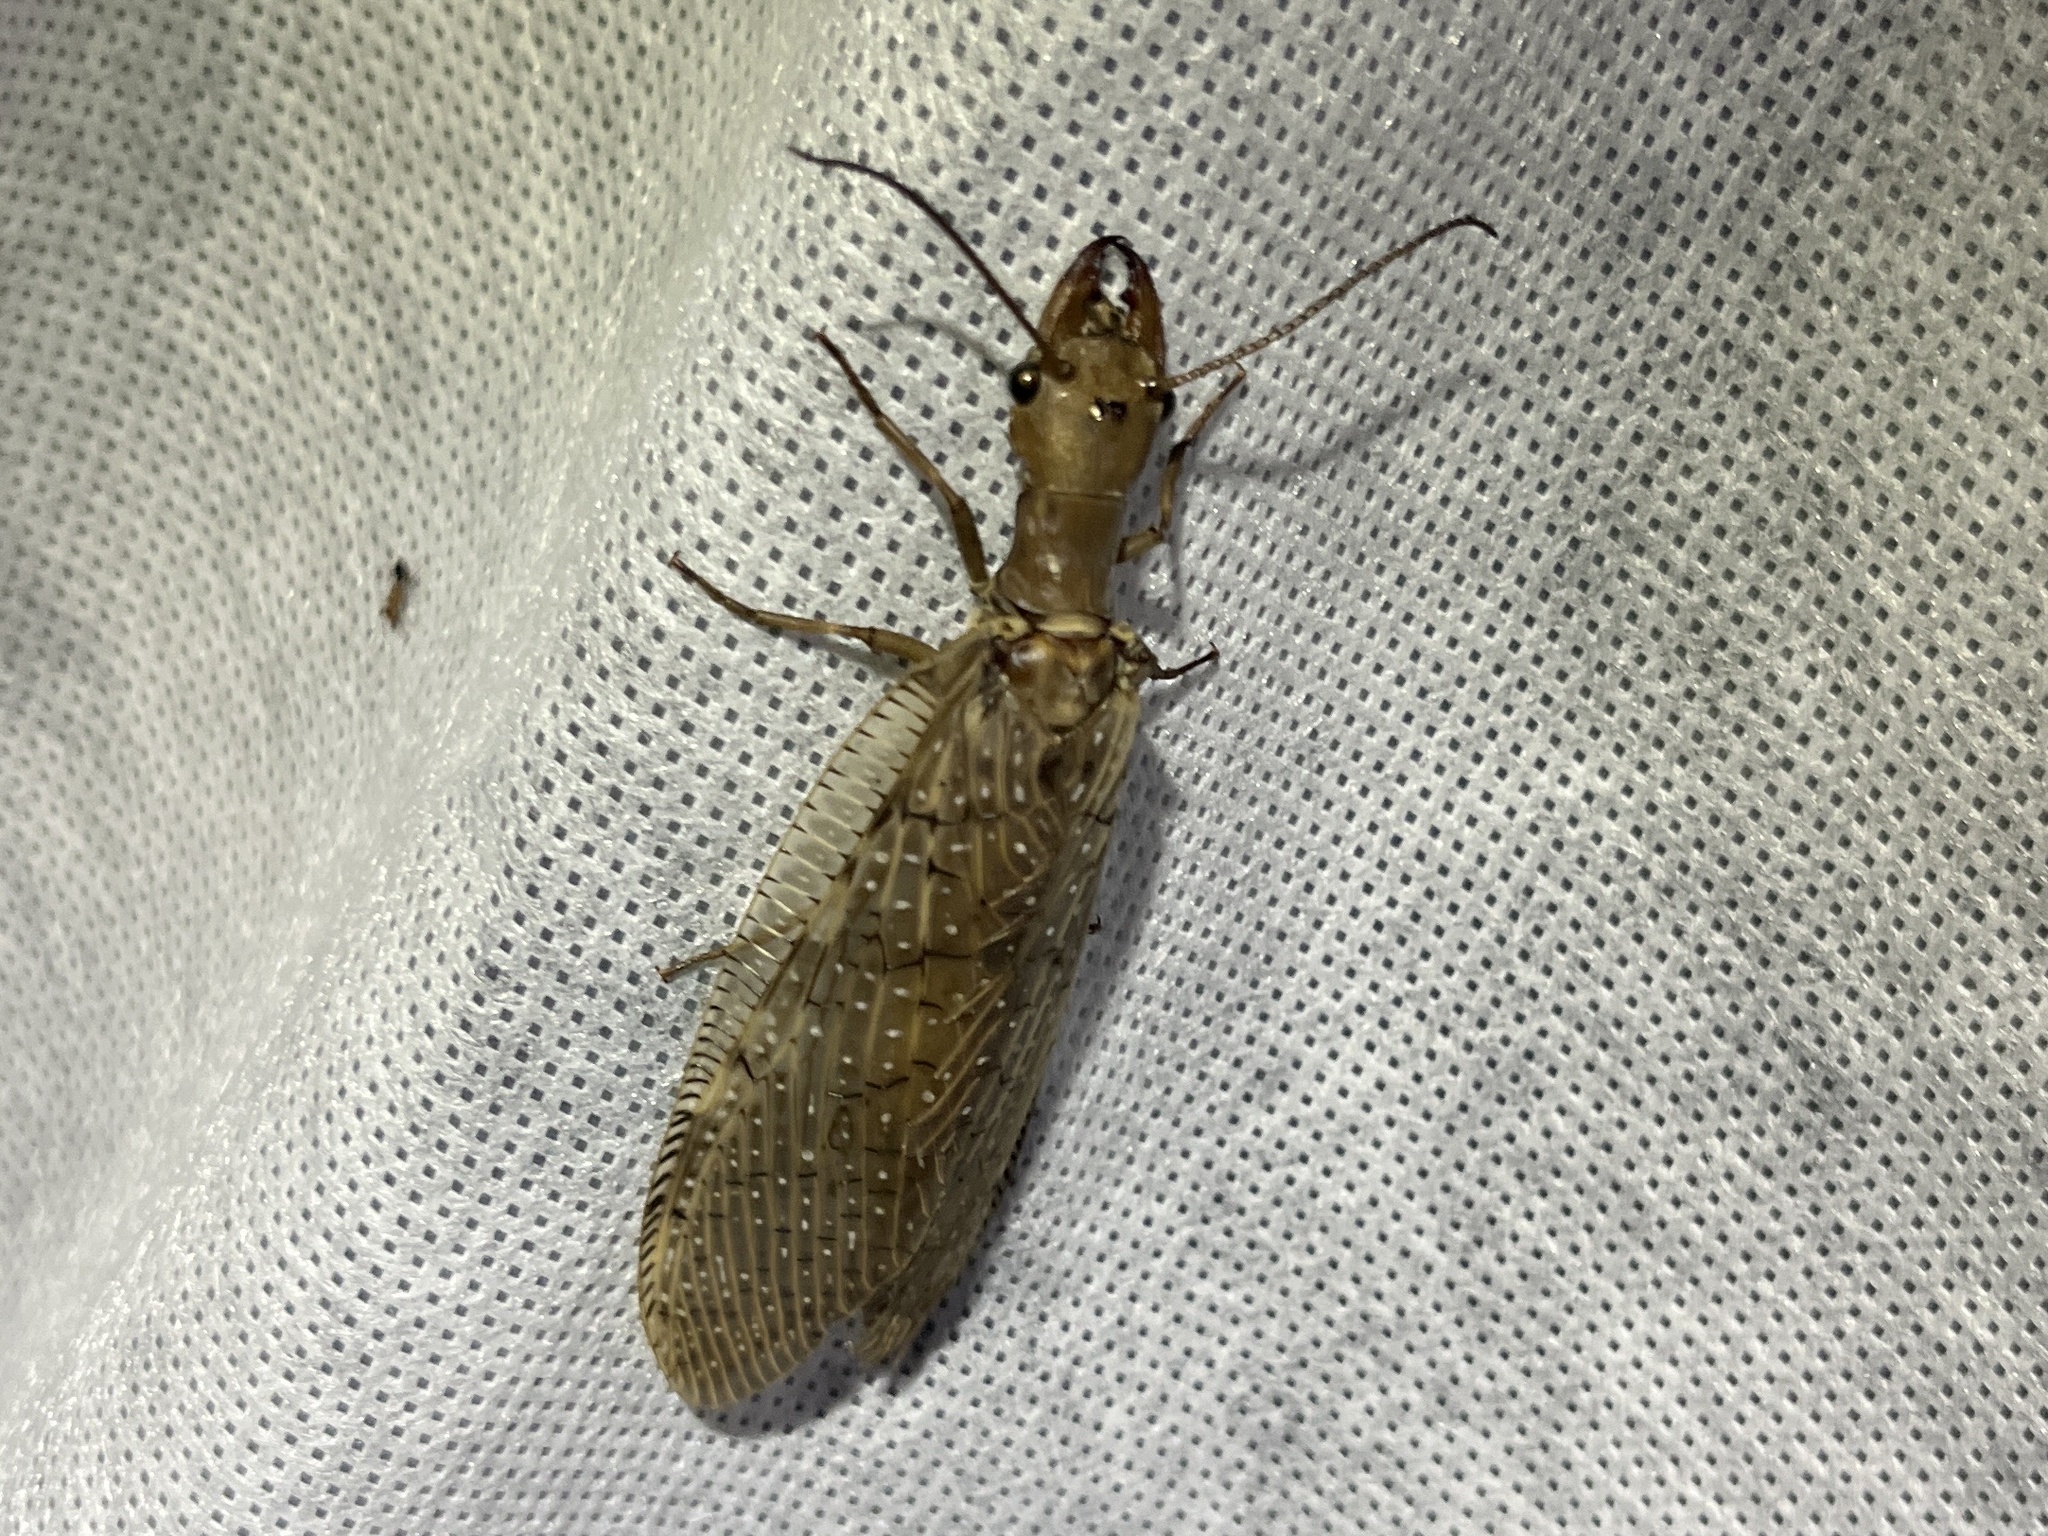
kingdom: Animalia
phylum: Arthropoda
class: Insecta
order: Megaloptera
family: Corydalidae
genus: Corydalus
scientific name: Corydalus luteus
